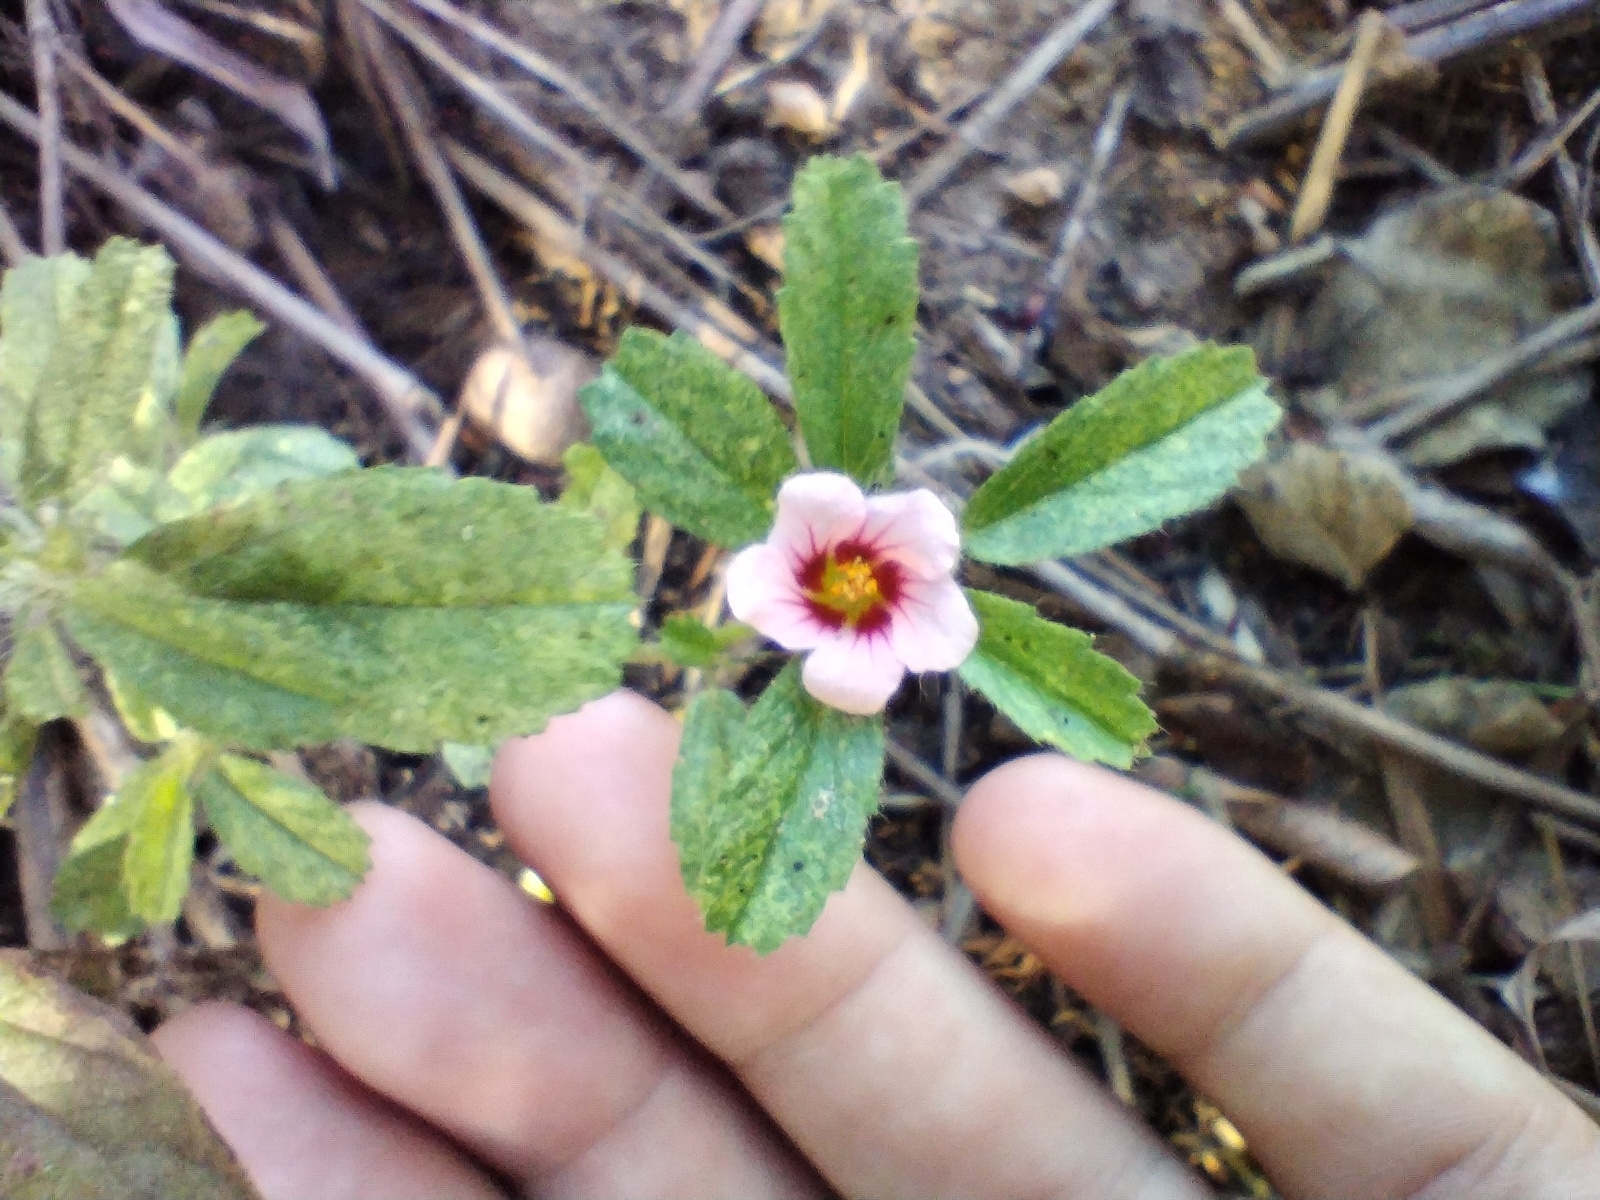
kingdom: Plantae
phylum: Tracheophyta
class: Magnoliopsida
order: Malvales
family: Malvaceae
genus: Sida
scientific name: Sida nordestinensis
